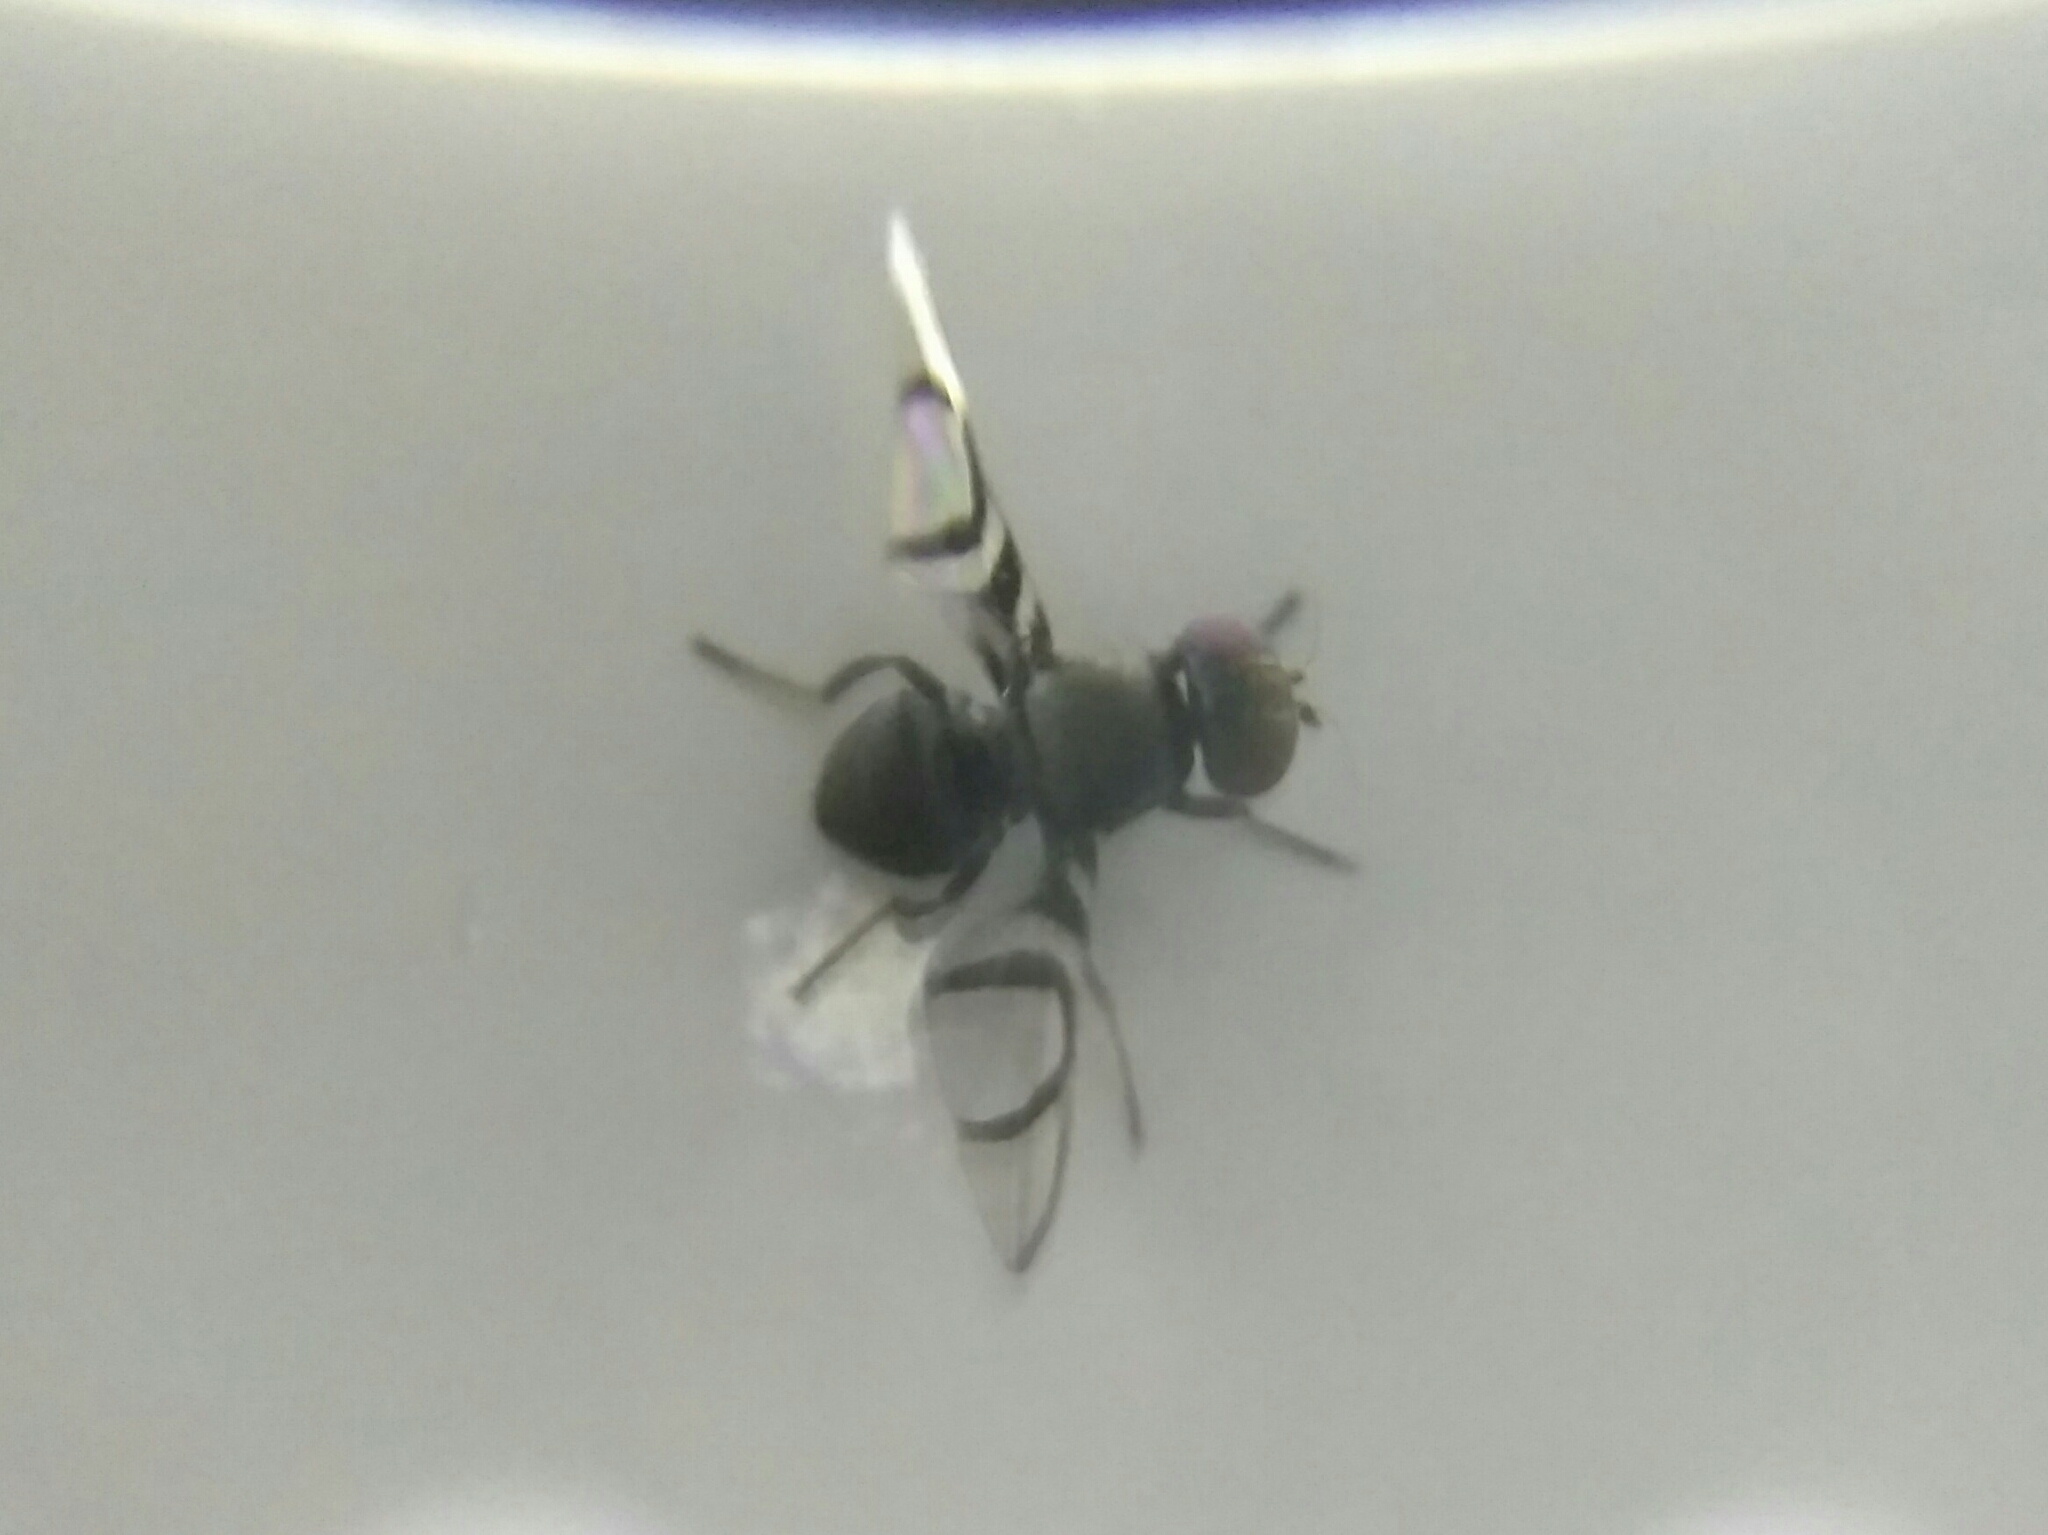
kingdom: Animalia
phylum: Arthropoda
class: Insecta
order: Diptera
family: Ulidiidae
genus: Axiologina
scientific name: Axiologina ferrumequinum
